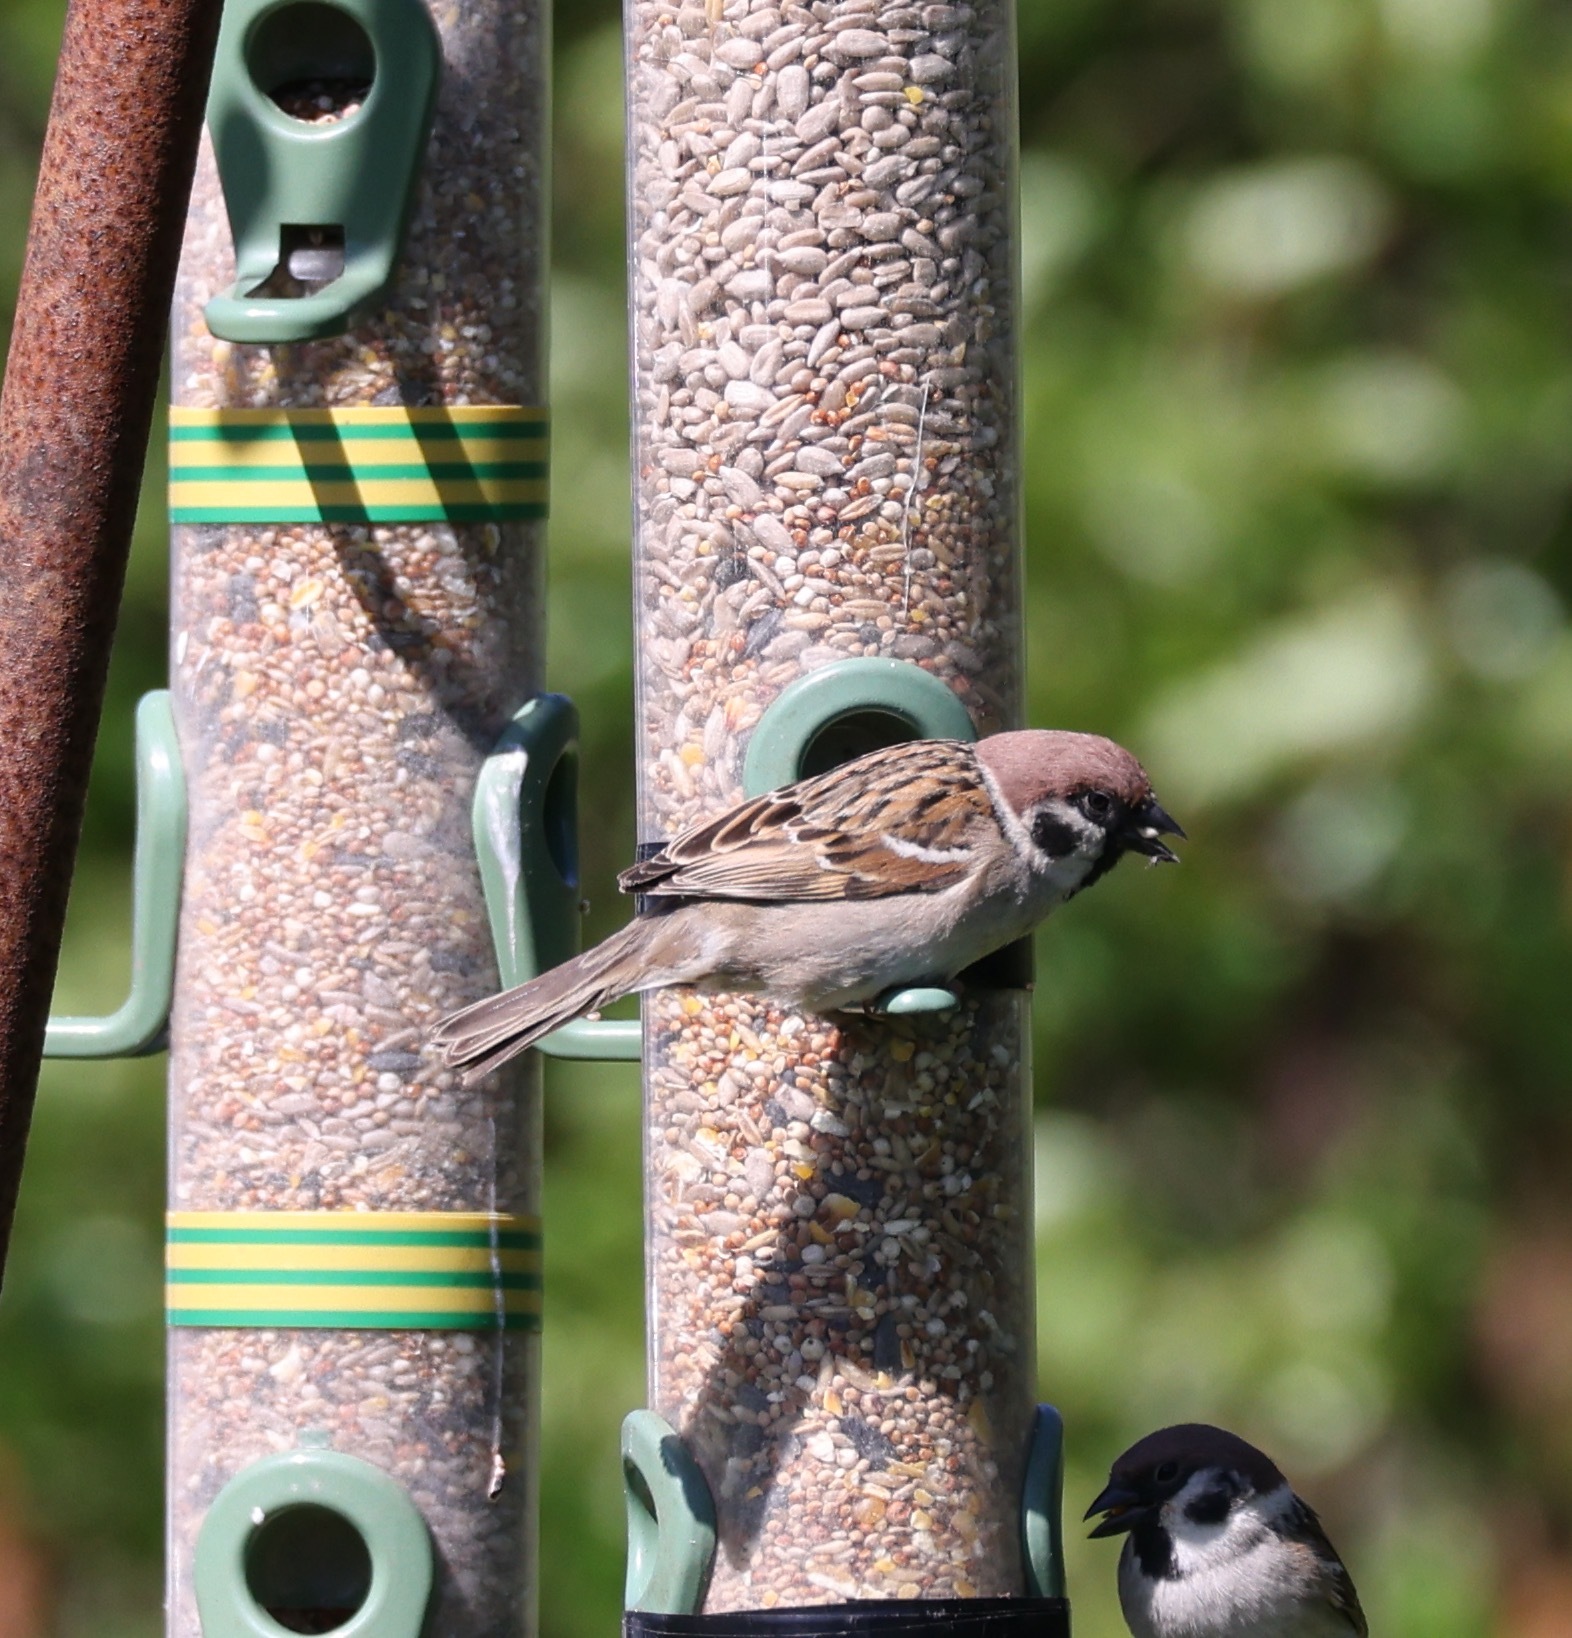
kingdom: Animalia
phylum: Chordata
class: Aves
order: Passeriformes
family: Passeridae
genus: Passer
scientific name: Passer montanus
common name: Eurasian tree sparrow
